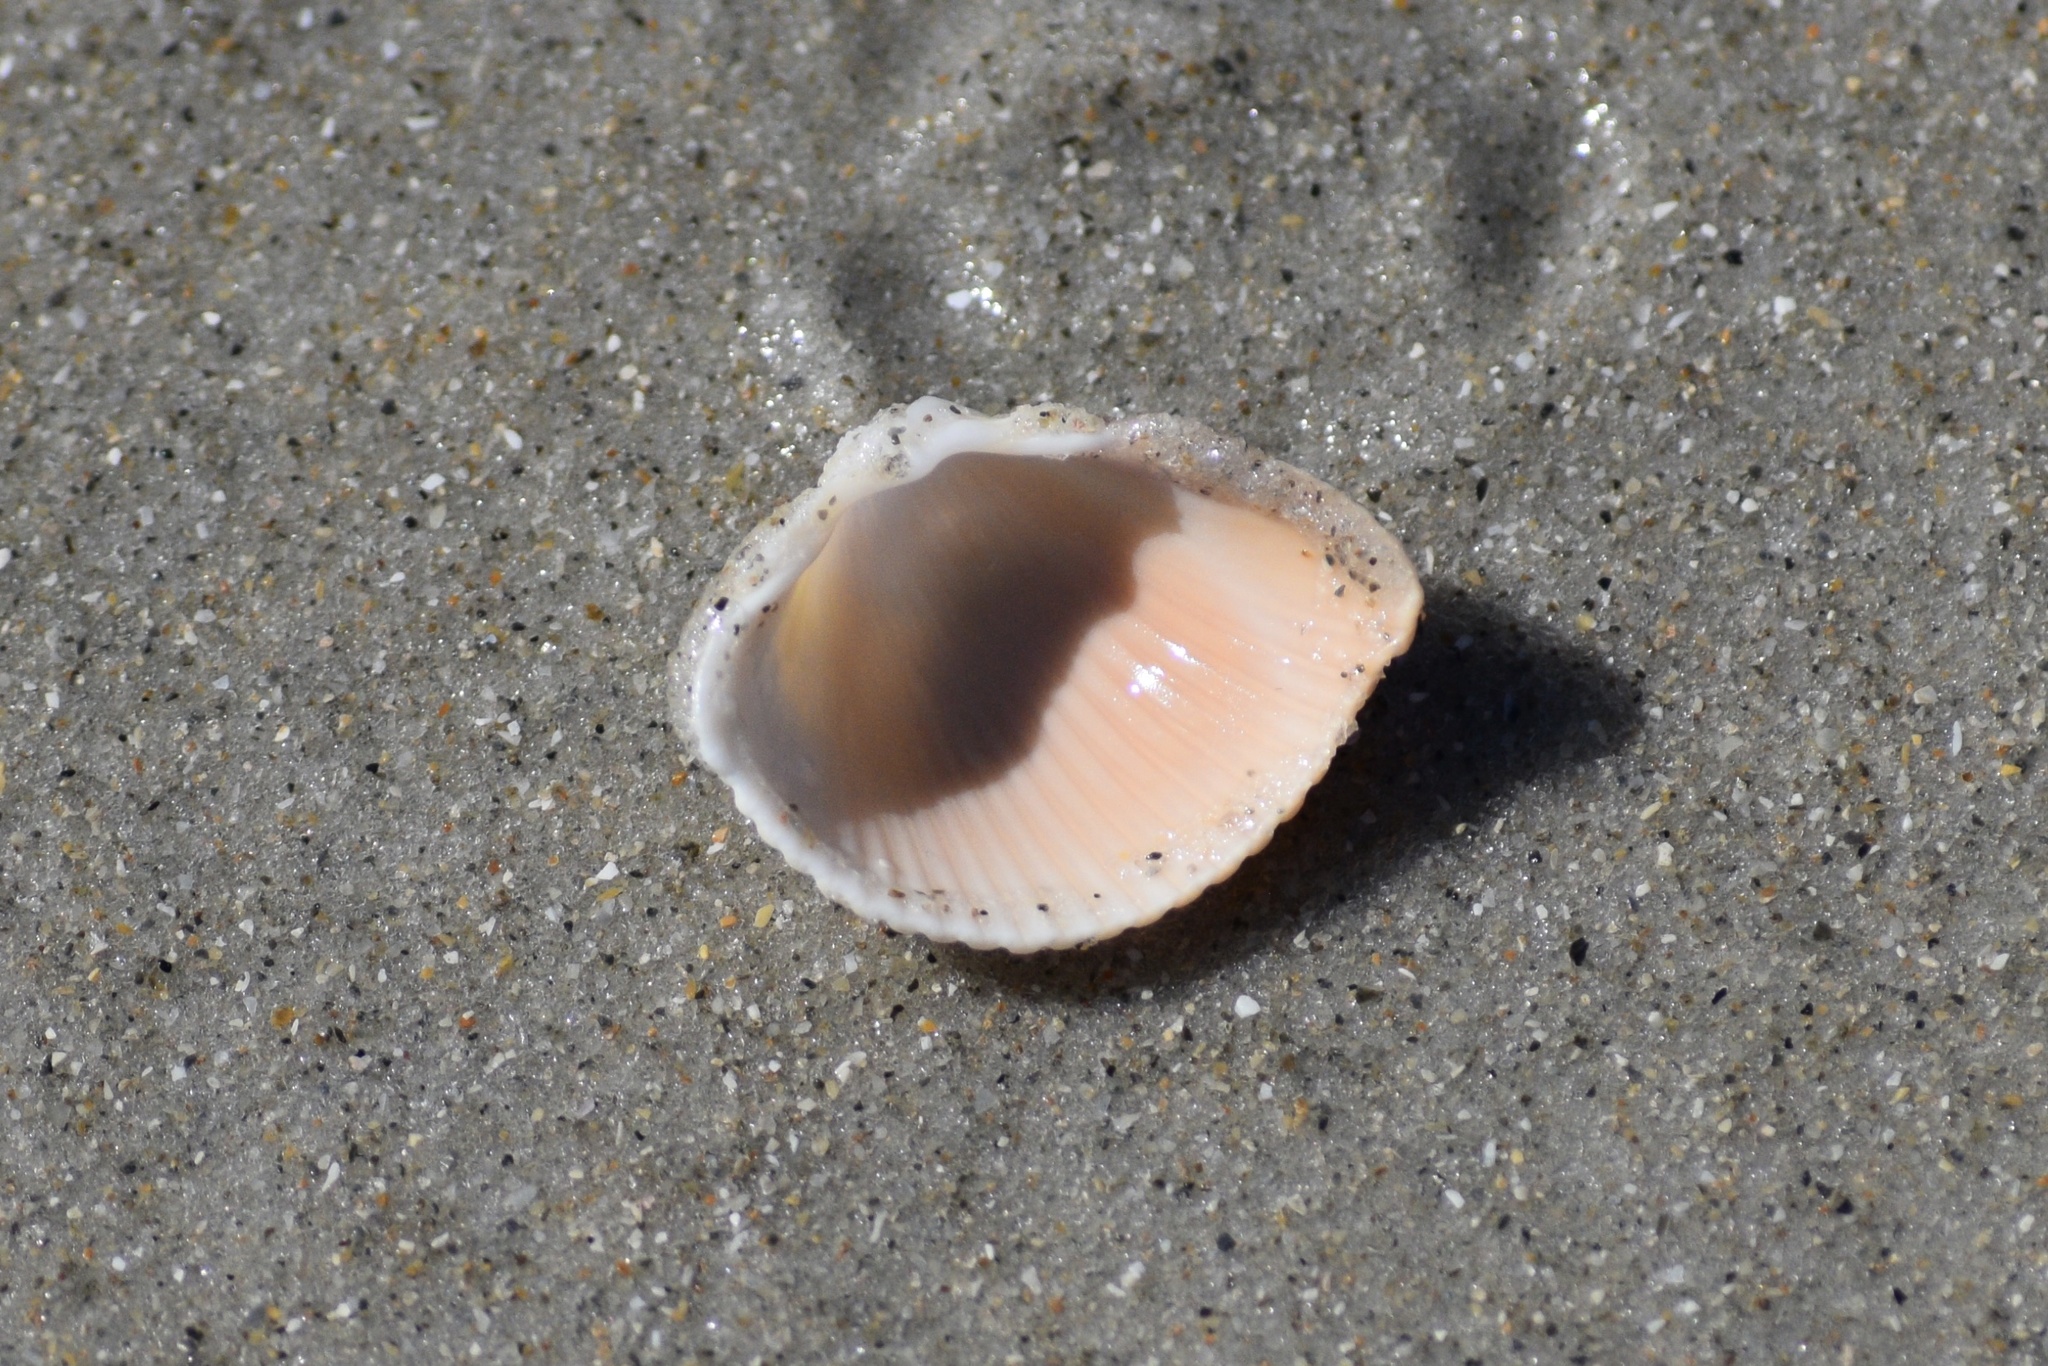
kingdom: Animalia
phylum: Mollusca
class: Bivalvia
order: Cardiida
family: Cardiidae
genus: Dinocardium
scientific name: Dinocardium robustum
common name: Atlantic giant cockle
